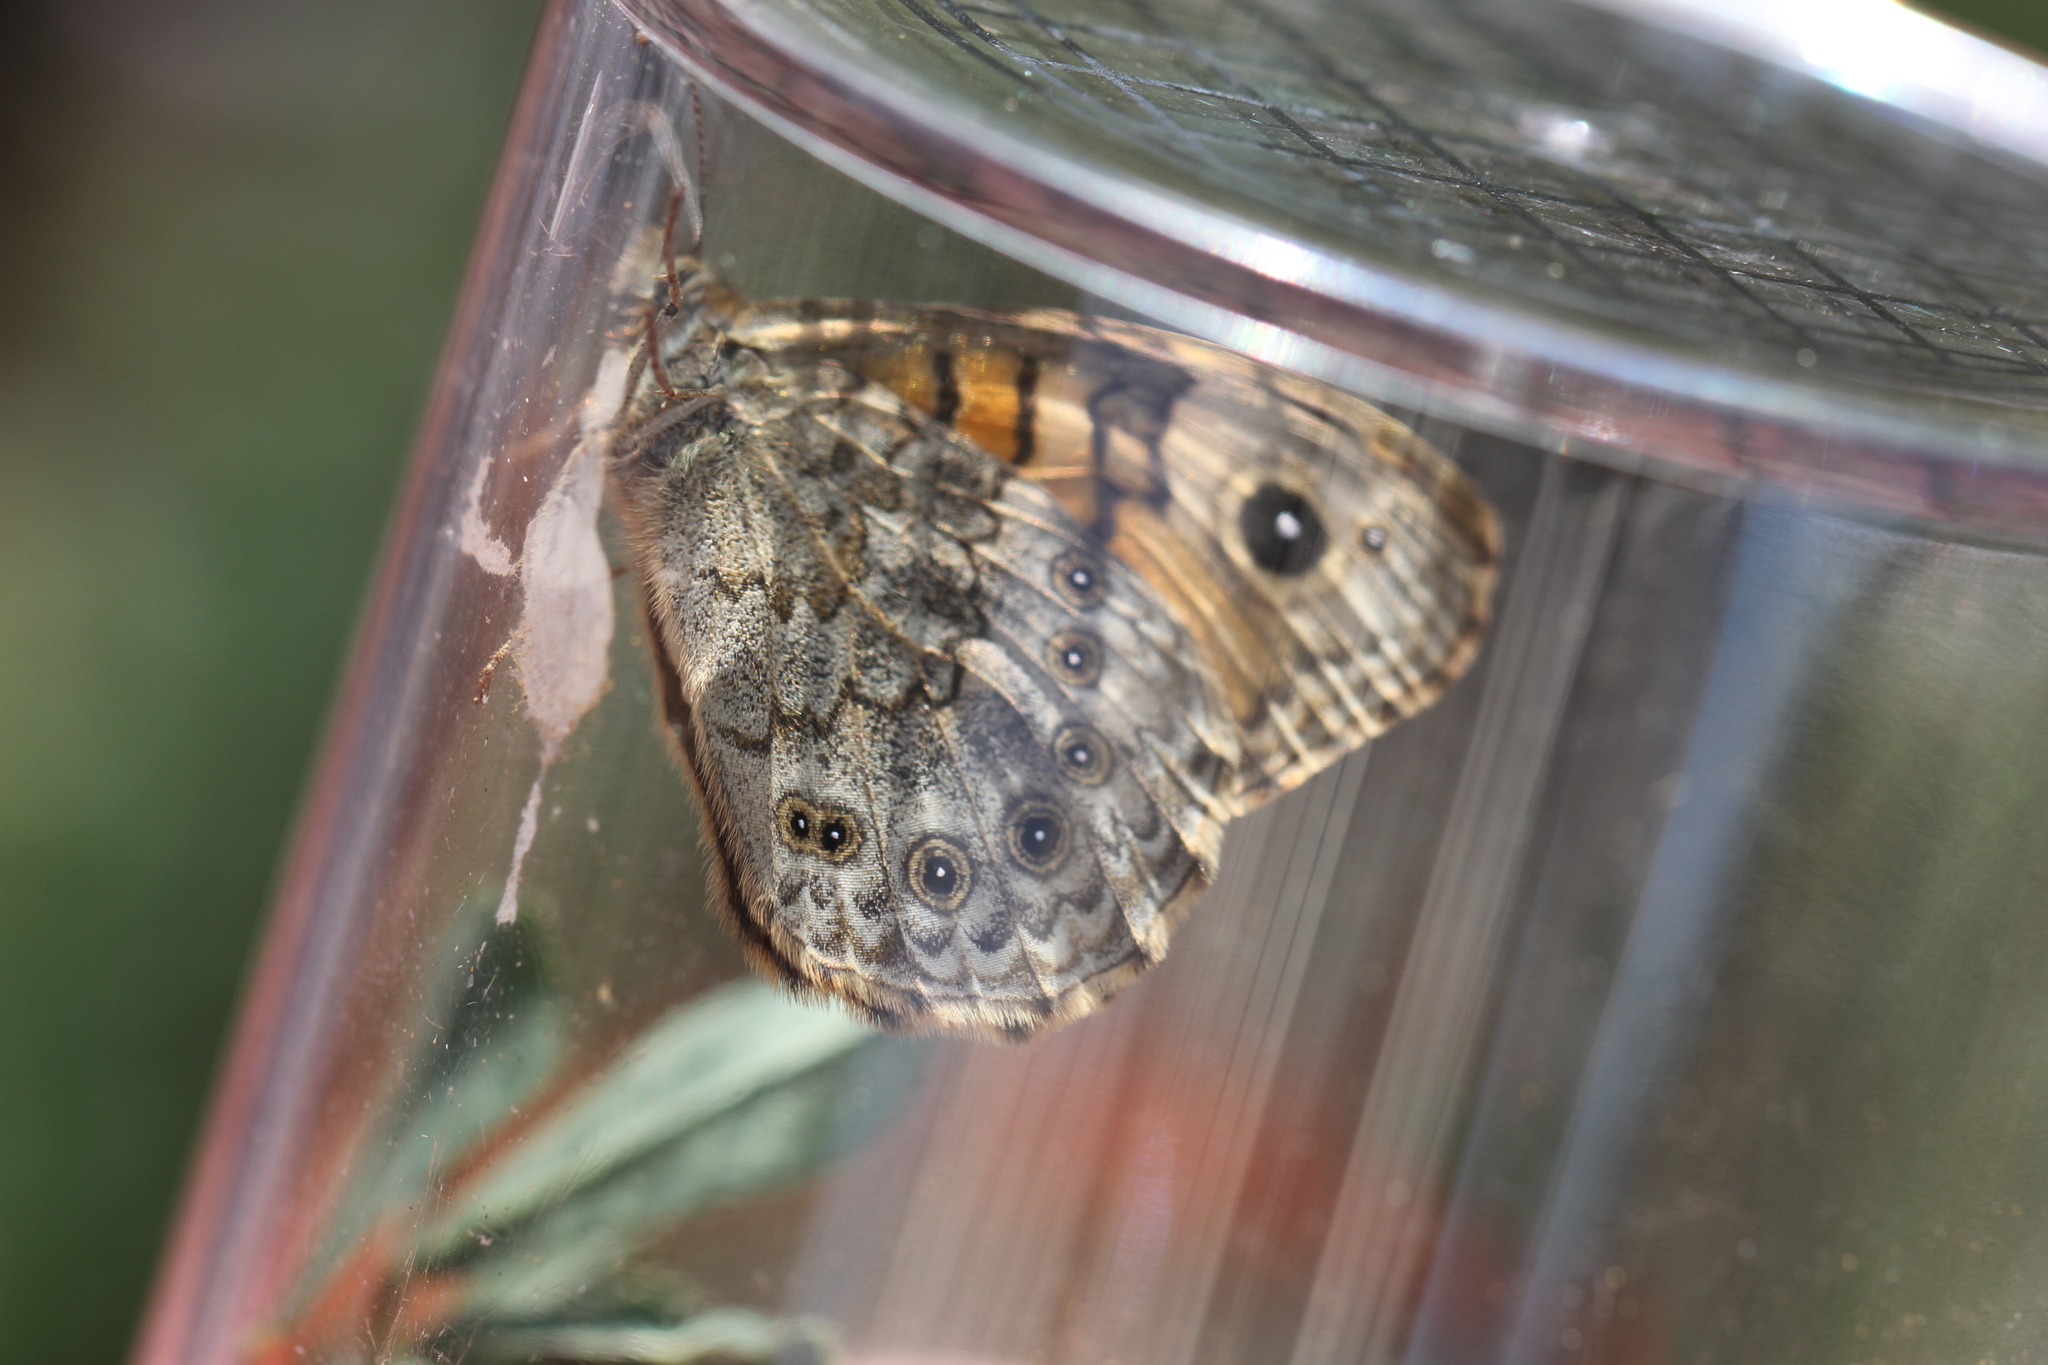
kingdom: Animalia
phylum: Arthropoda
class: Insecta
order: Lepidoptera
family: Nymphalidae
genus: Pararge
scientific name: Pararge Lasiommata megera
